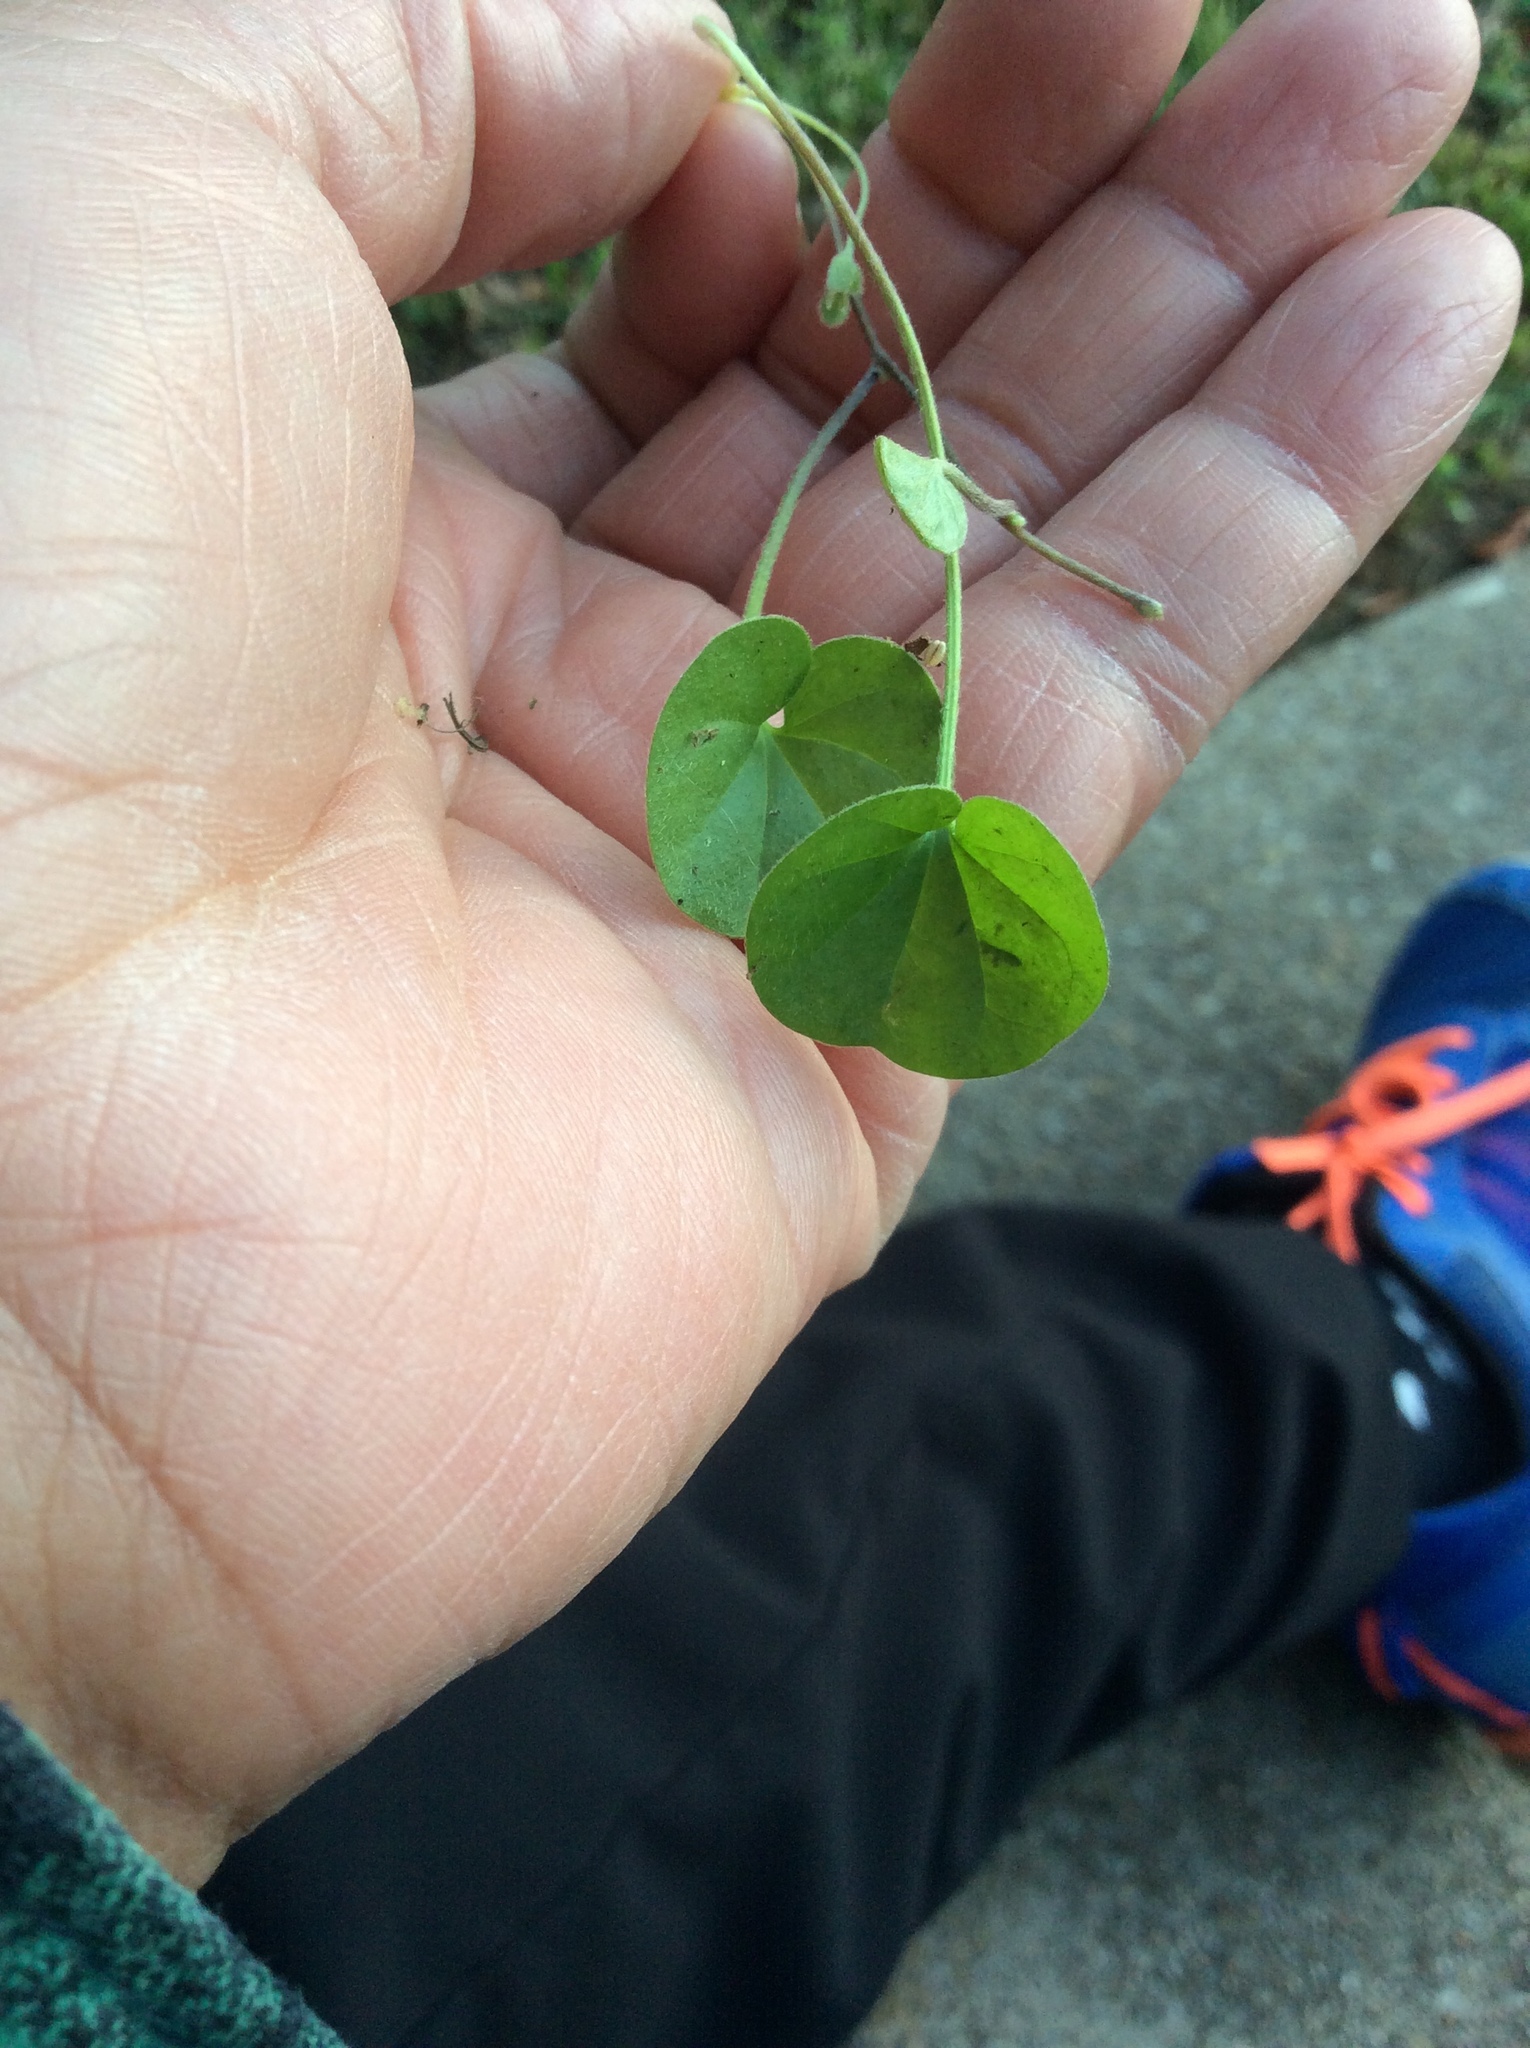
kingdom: Plantae
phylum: Tracheophyta
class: Magnoliopsida
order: Solanales
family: Convolvulaceae
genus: Dichondra
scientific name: Dichondra carolinensis
